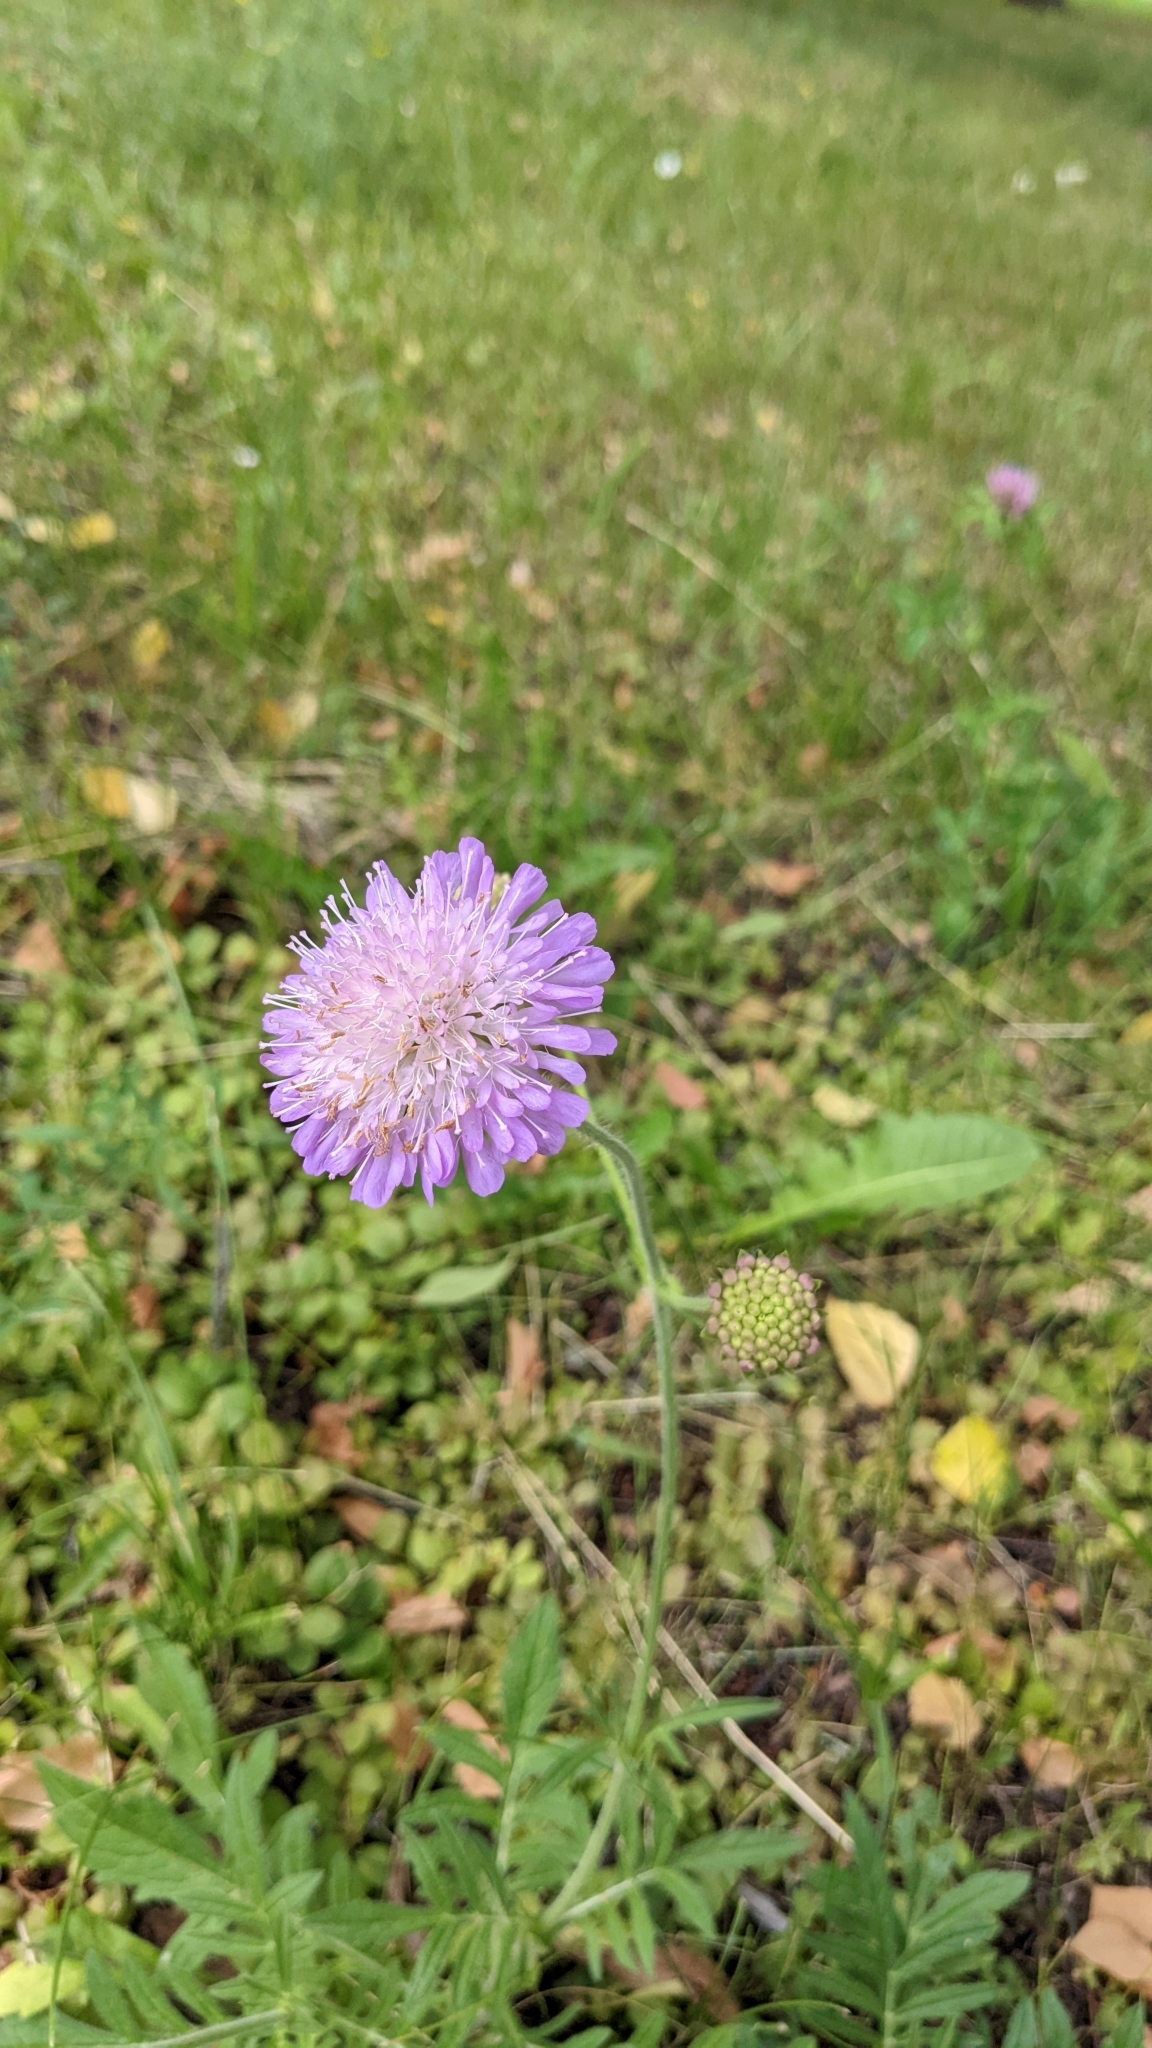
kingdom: Plantae
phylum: Tracheophyta
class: Magnoliopsida
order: Dipsacales
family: Caprifoliaceae
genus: Knautia
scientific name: Knautia arvensis
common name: Field scabiosa
